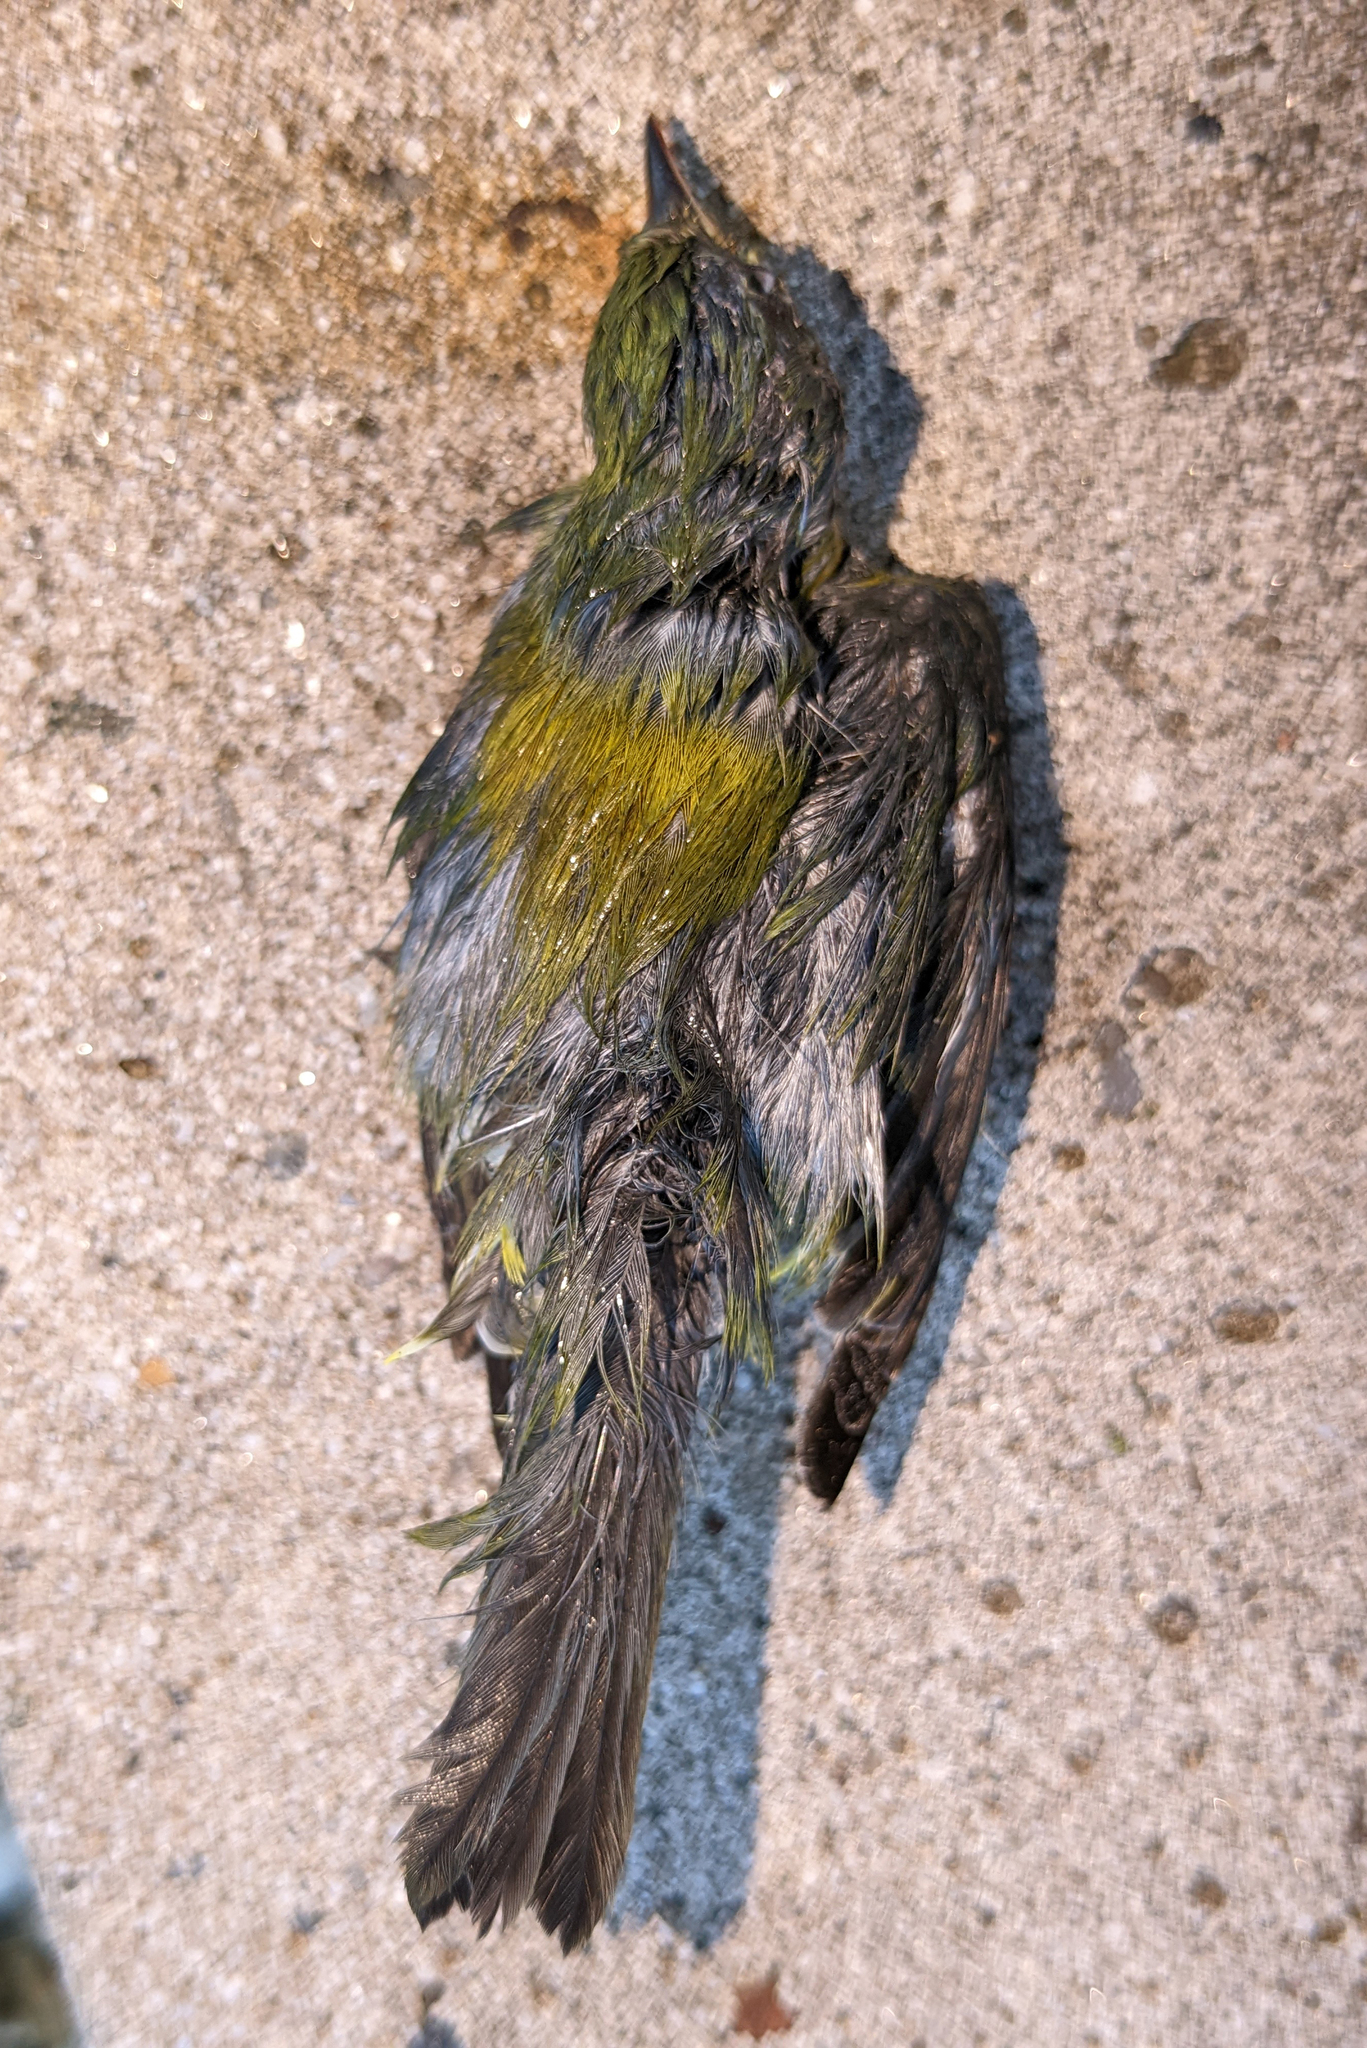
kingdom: Animalia
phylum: Chordata
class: Aves
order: Passeriformes
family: Parulidae
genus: Setophaga
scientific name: Setophaga americana
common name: Northern parula
